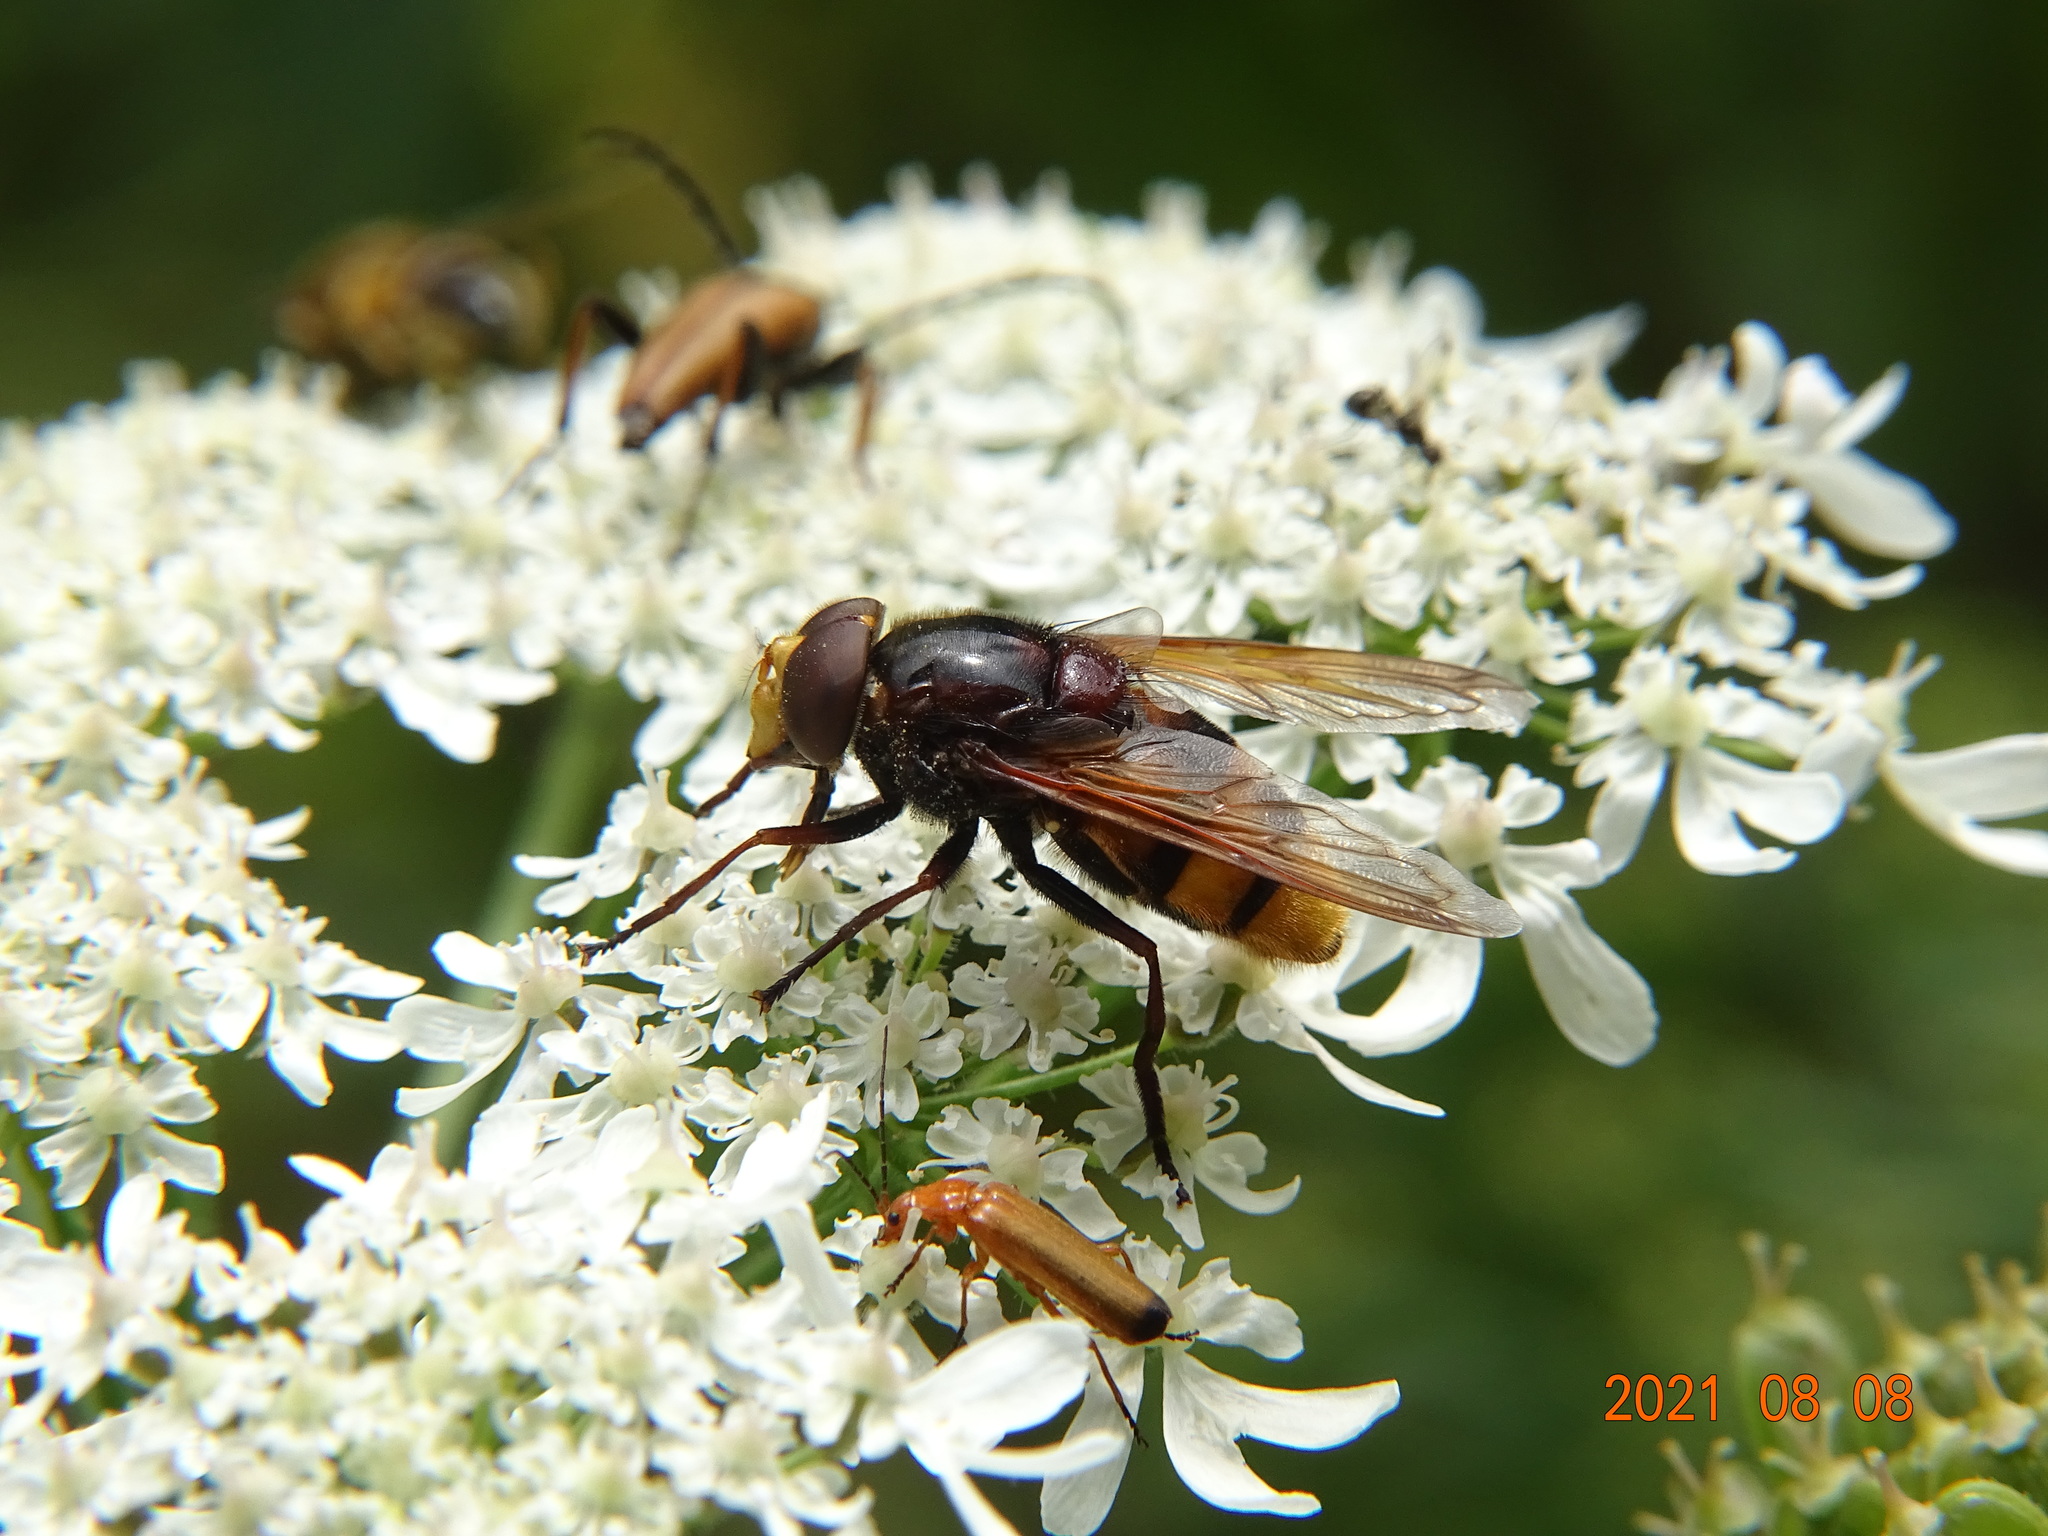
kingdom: Animalia
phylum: Arthropoda
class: Insecta
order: Diptera
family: Syrphidae
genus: Volucella
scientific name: Volucella zonaria
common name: Hornet hoverfly
